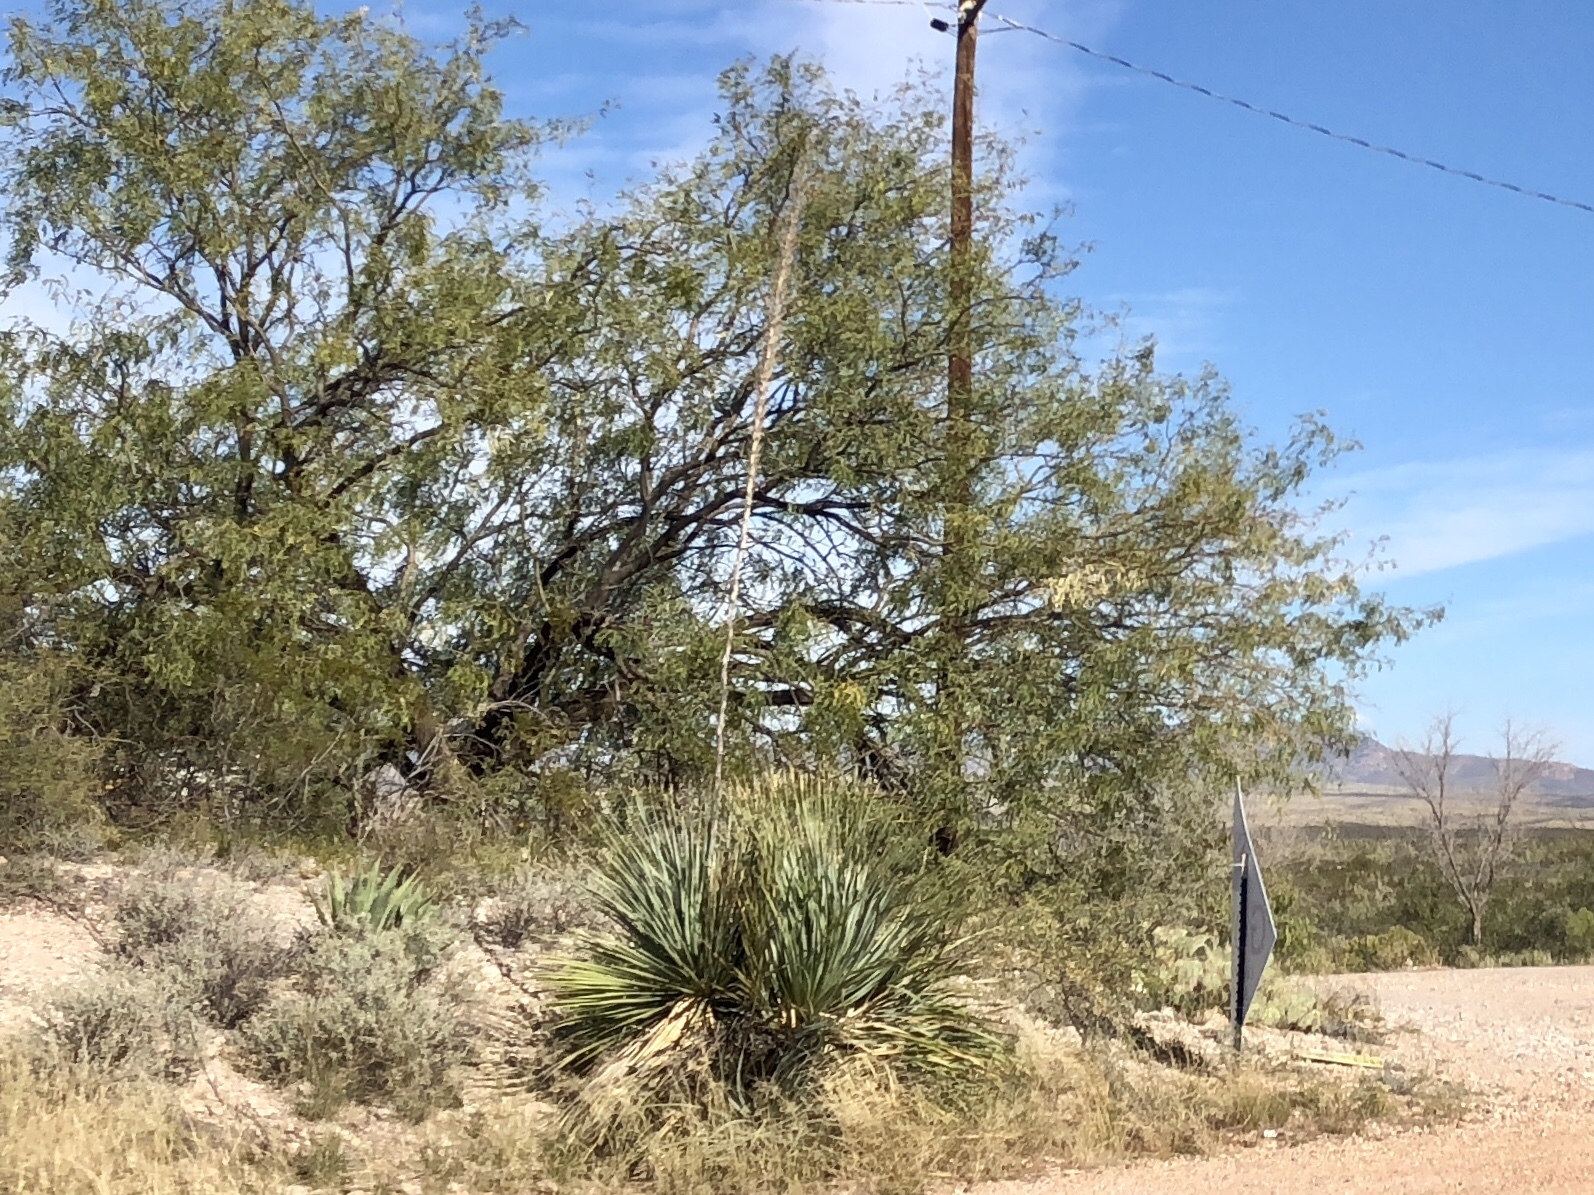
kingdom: Plantae
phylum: Tracheophyta
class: Liliopsida
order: Asparagales
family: Asparagaceae
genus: Dasylirion
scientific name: Dasylirion wheeleri
